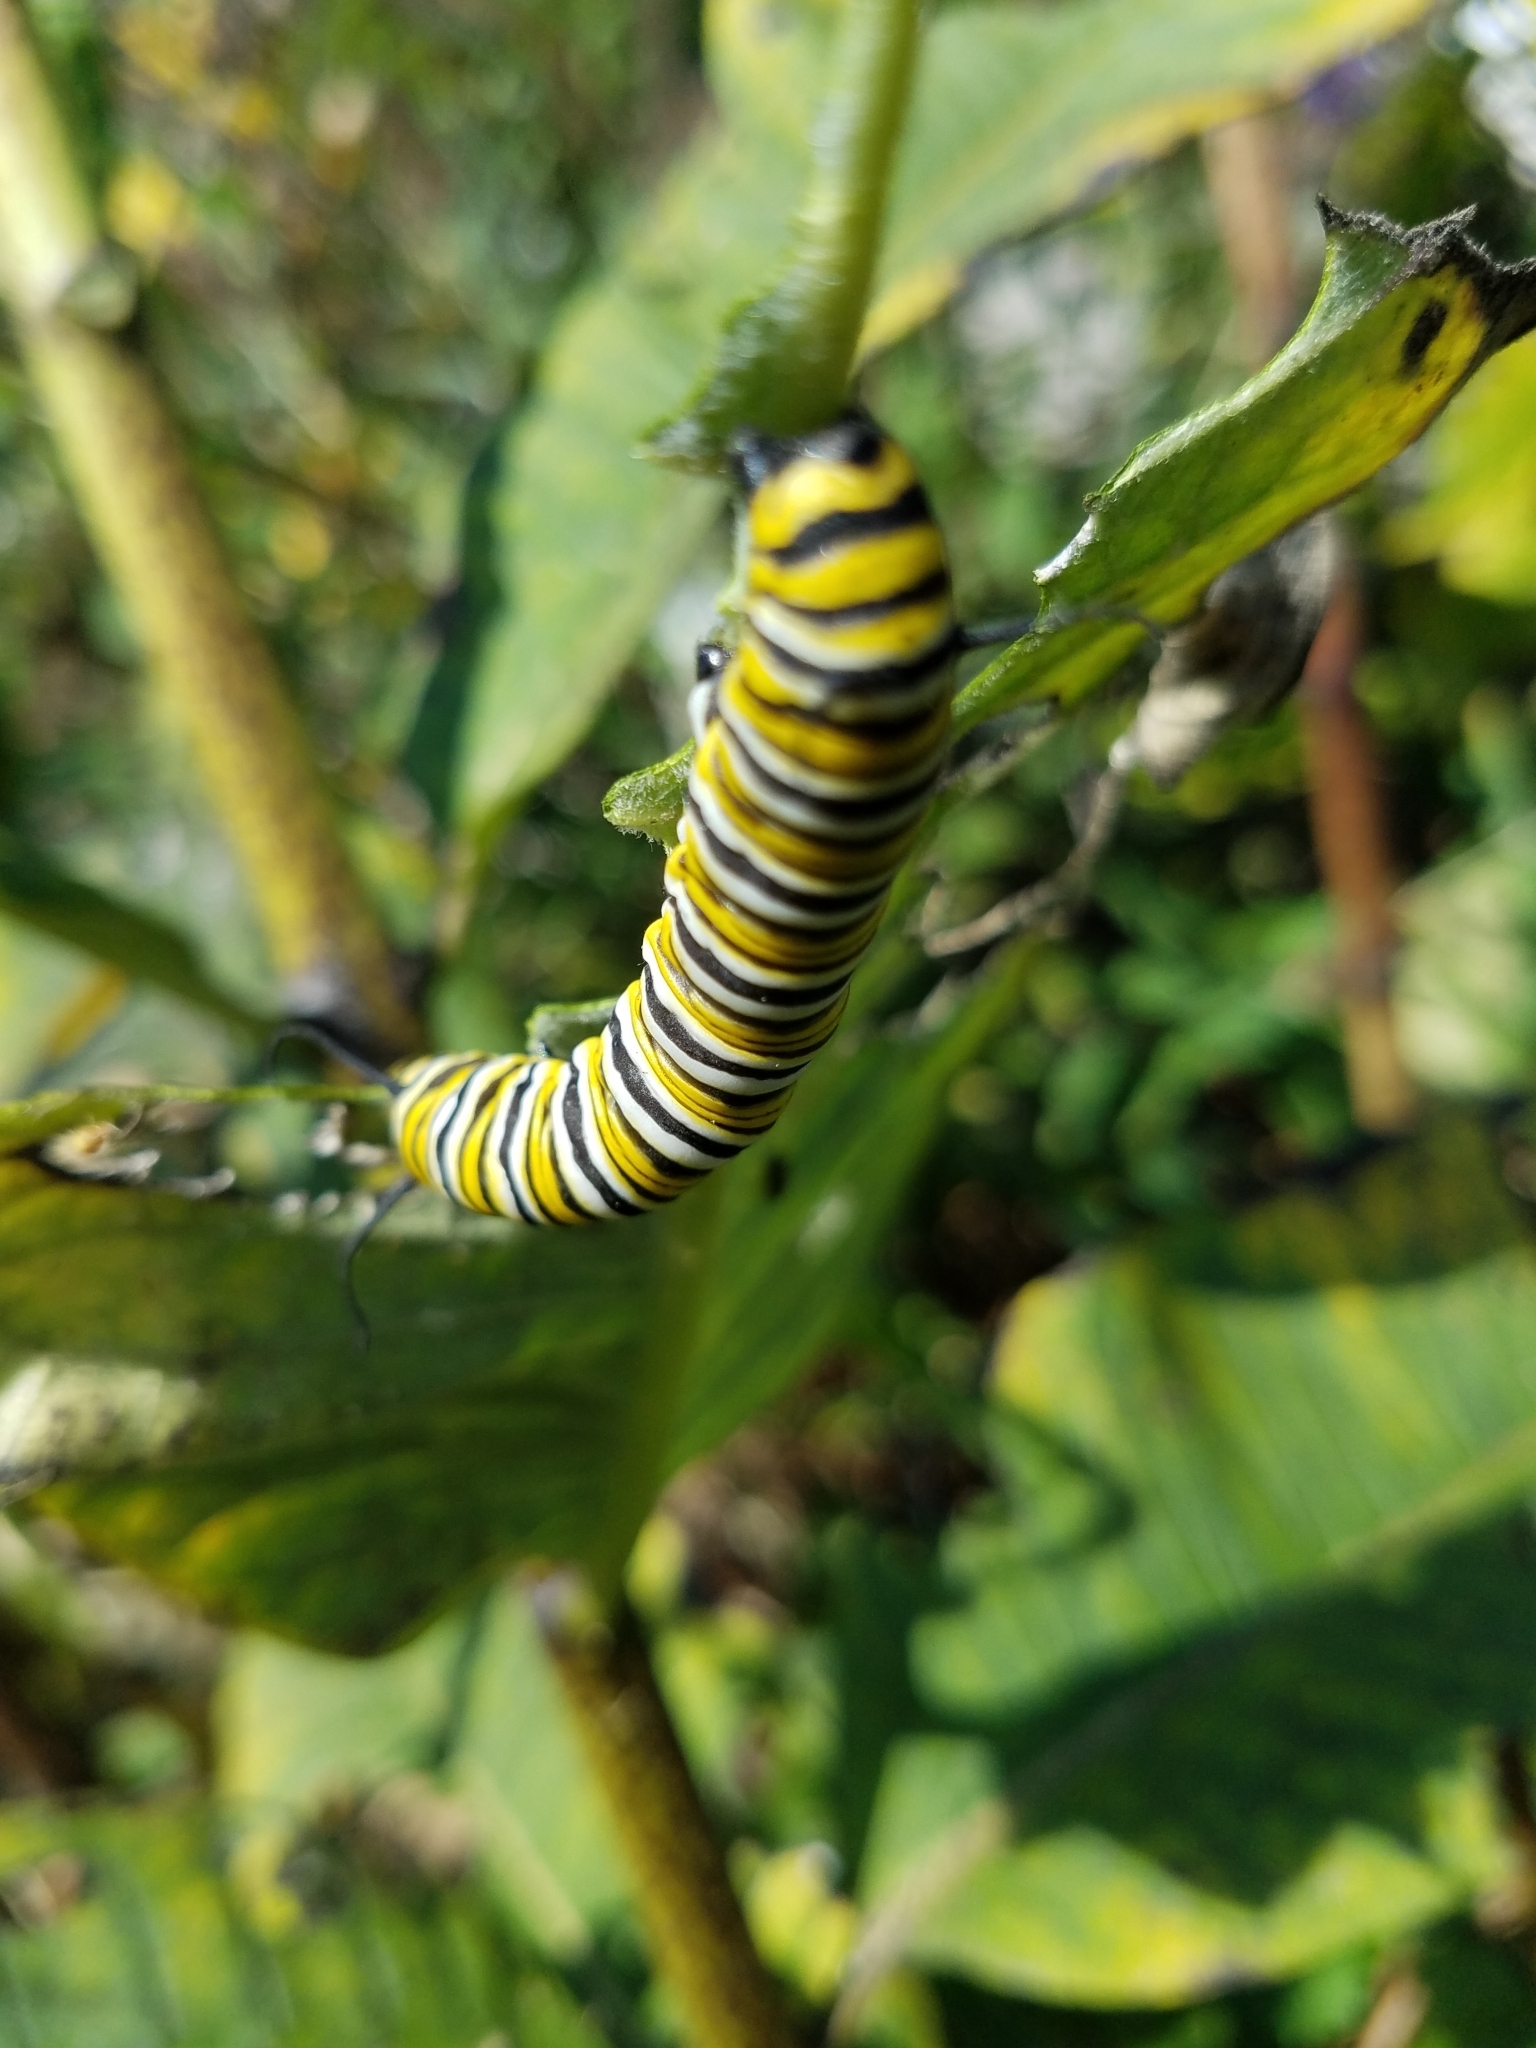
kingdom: Animalia
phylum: Arthropoda
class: Insecta
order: Lepidoptera
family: Nymphalidae
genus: Danaus
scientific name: Danaus plexippus
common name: Monarch
